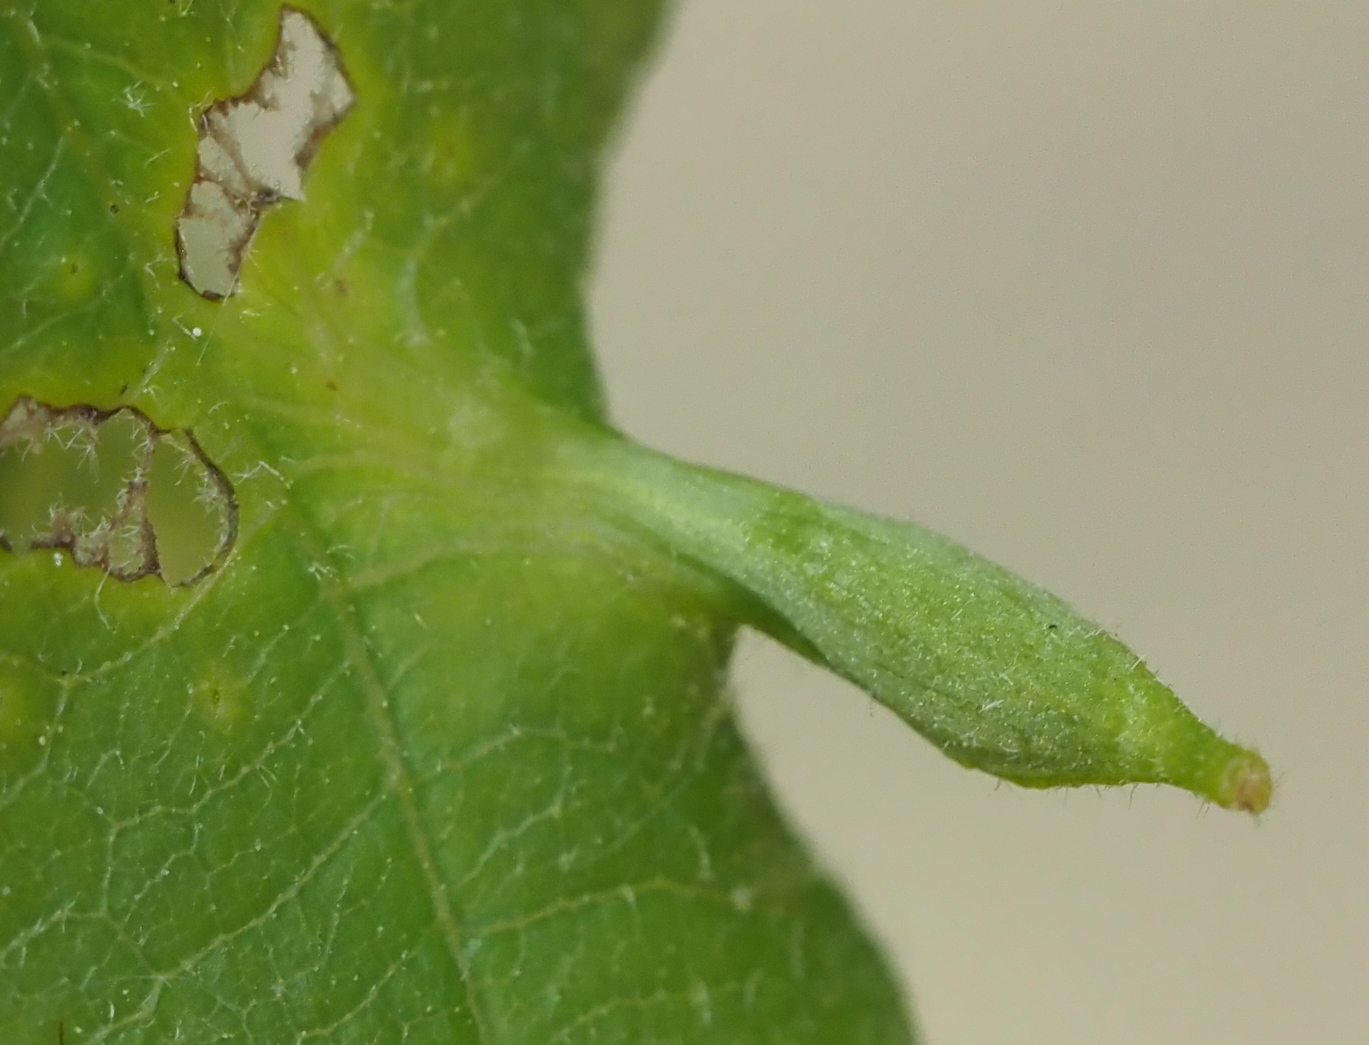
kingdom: Animalia
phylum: Arthropoda
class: Insecta
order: Hymenoptera
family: Cynipidae
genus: Andricus
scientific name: Andricus
